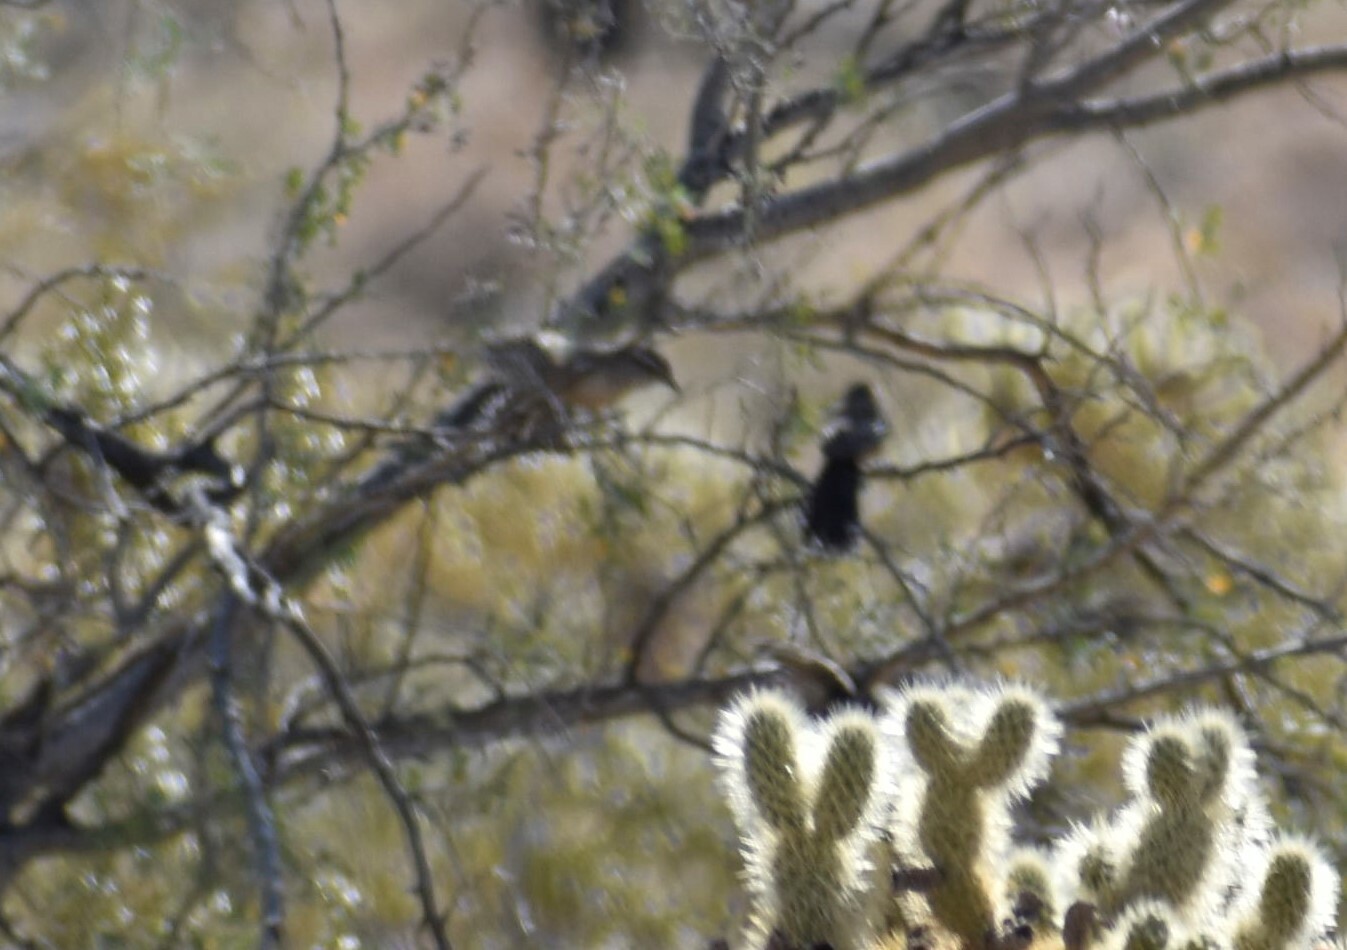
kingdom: Animalia
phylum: Chordata
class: Aves
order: Passeriformes
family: Troglodytidae
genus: Campylorhynchus
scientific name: Campylorhynchus brunneicapillus
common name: Cactus wren
